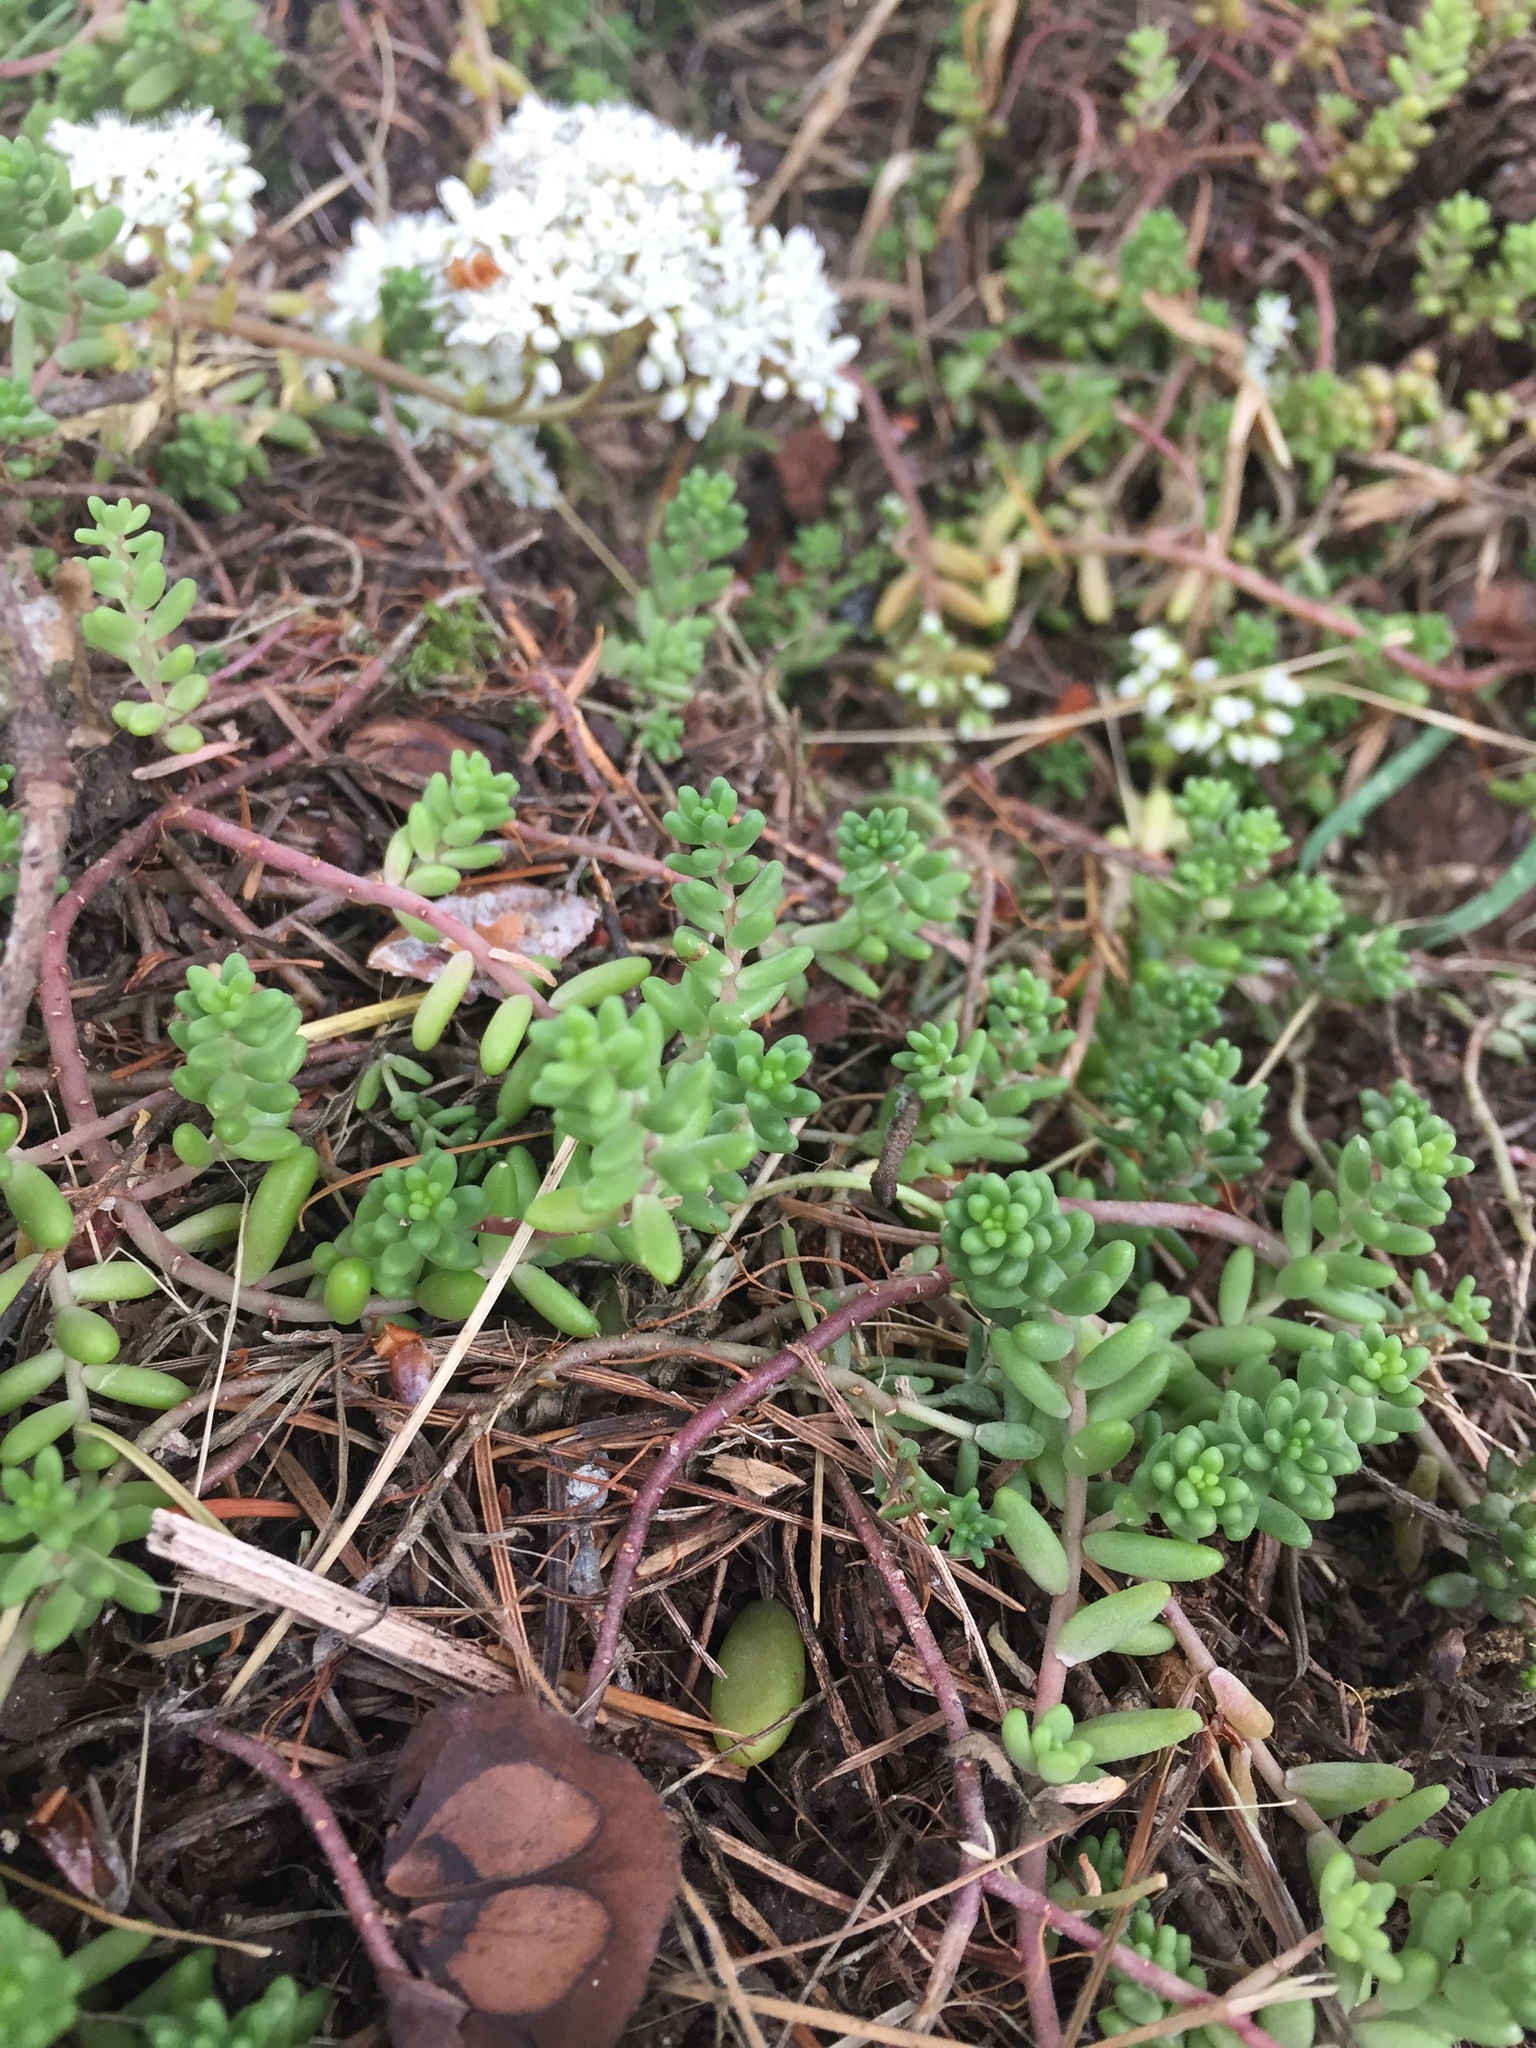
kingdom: Plantae
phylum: Tracheophyta
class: Magnoliopsida
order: Saxifragales
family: Crassulaceae
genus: Sedum
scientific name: Sedum album
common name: White stonecrop
